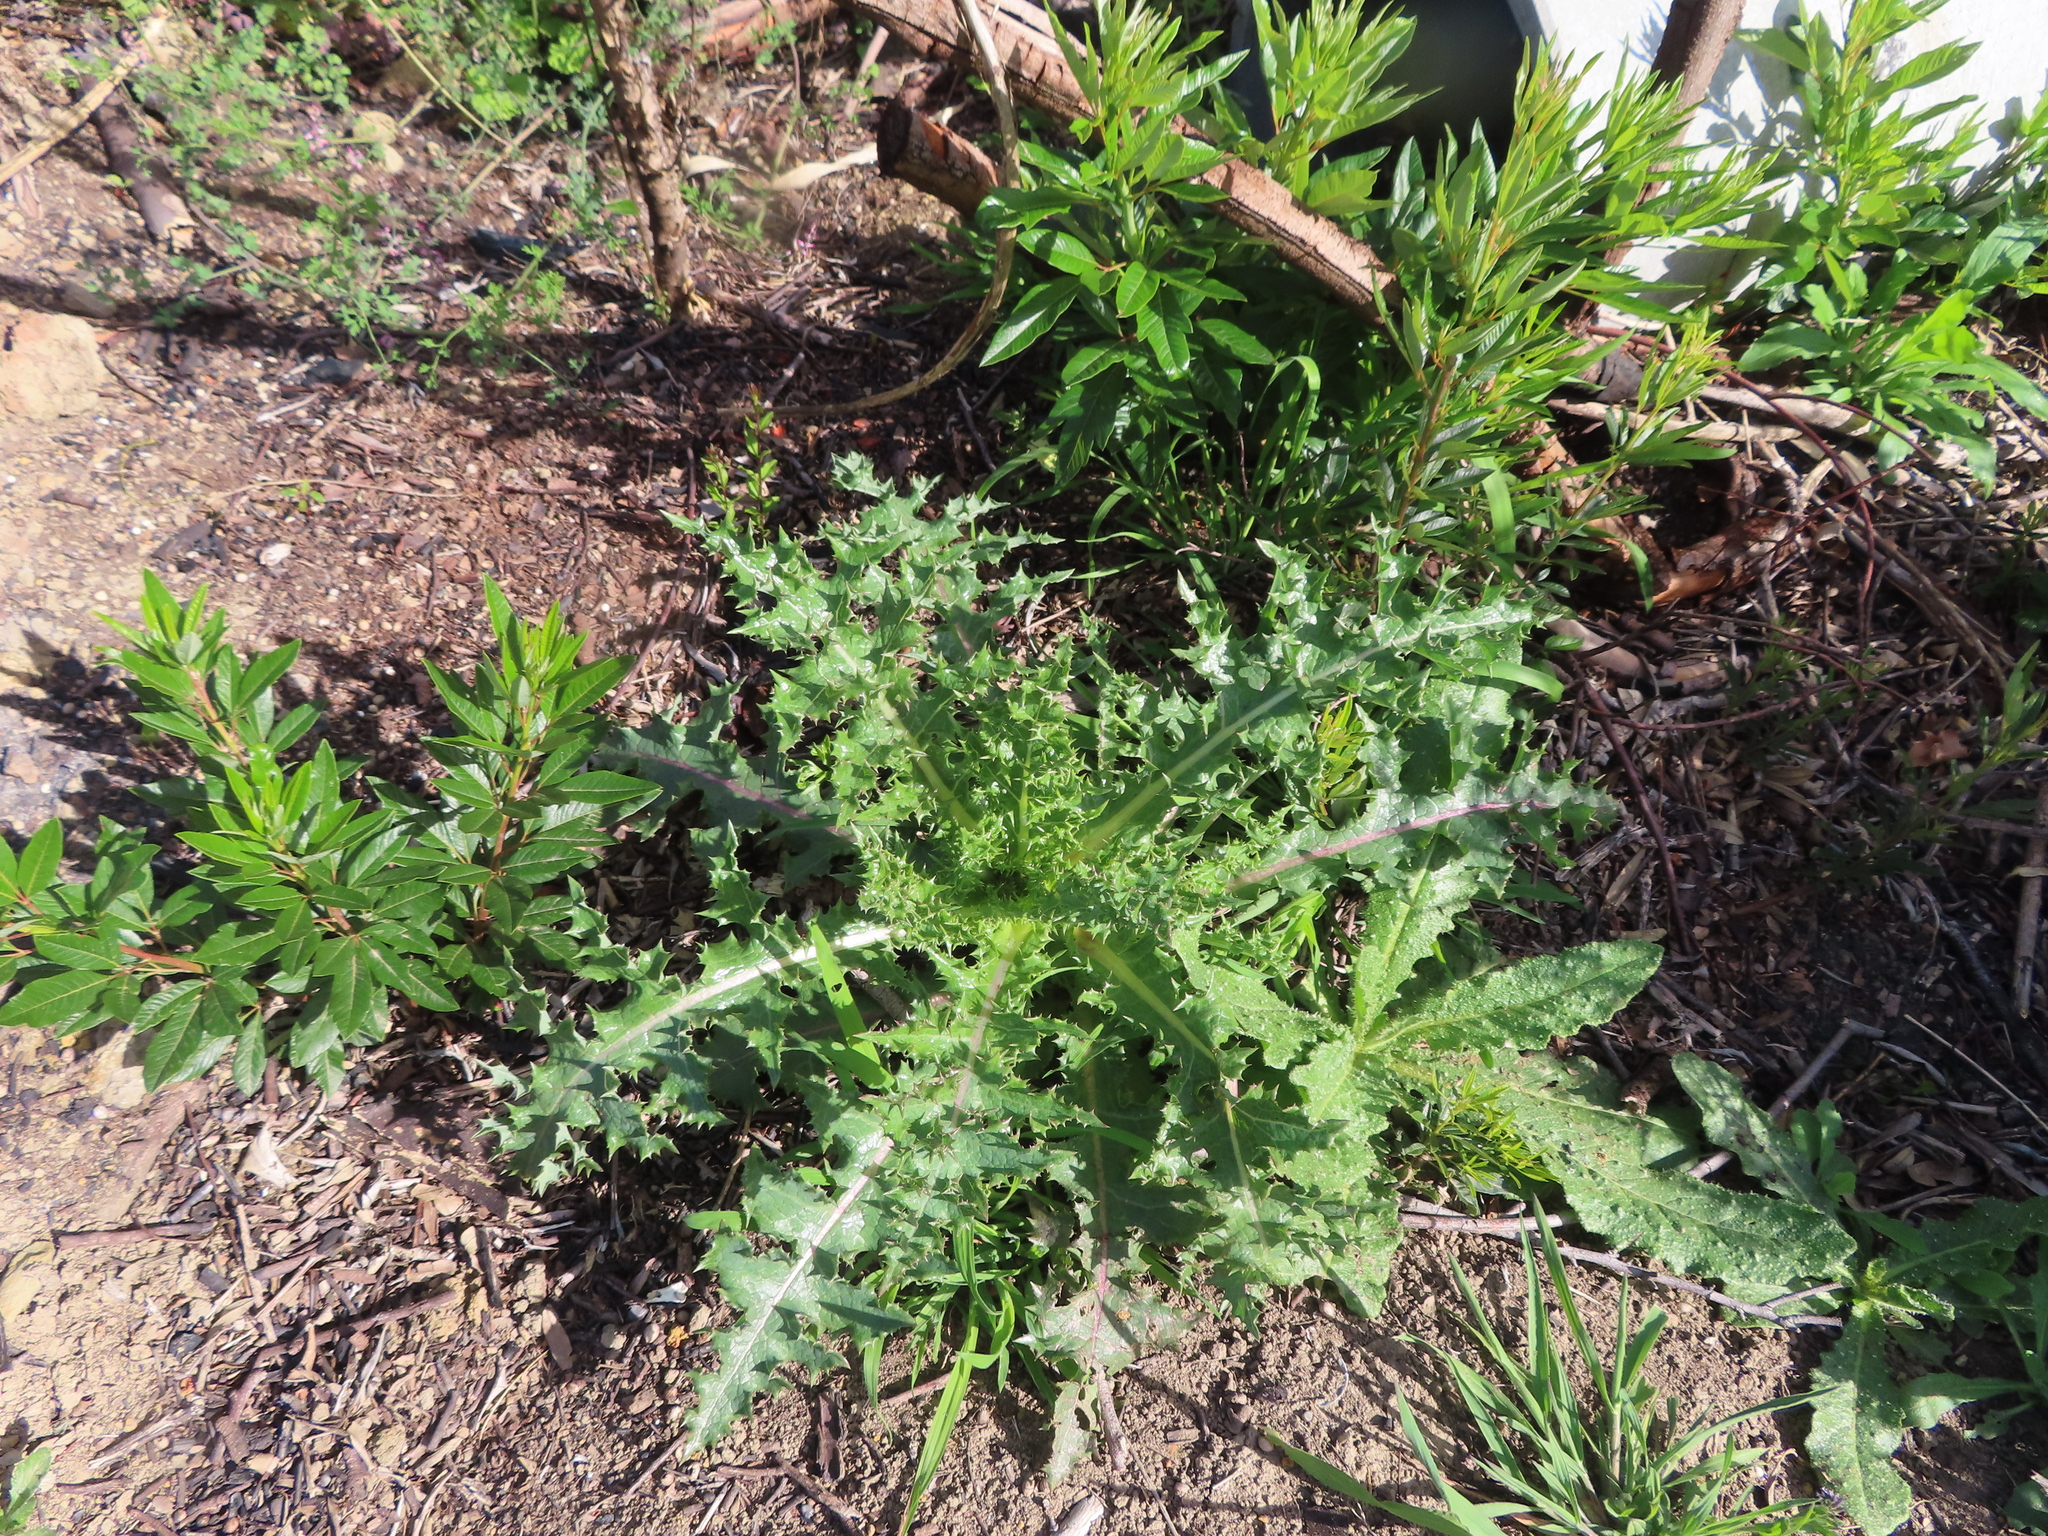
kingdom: Plantae
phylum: Tracheophyta
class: Magnoliopsida
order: Asterales
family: Asteraceae
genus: Sonchus
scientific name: Sonchus asper
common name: Prickly sow-thistle
